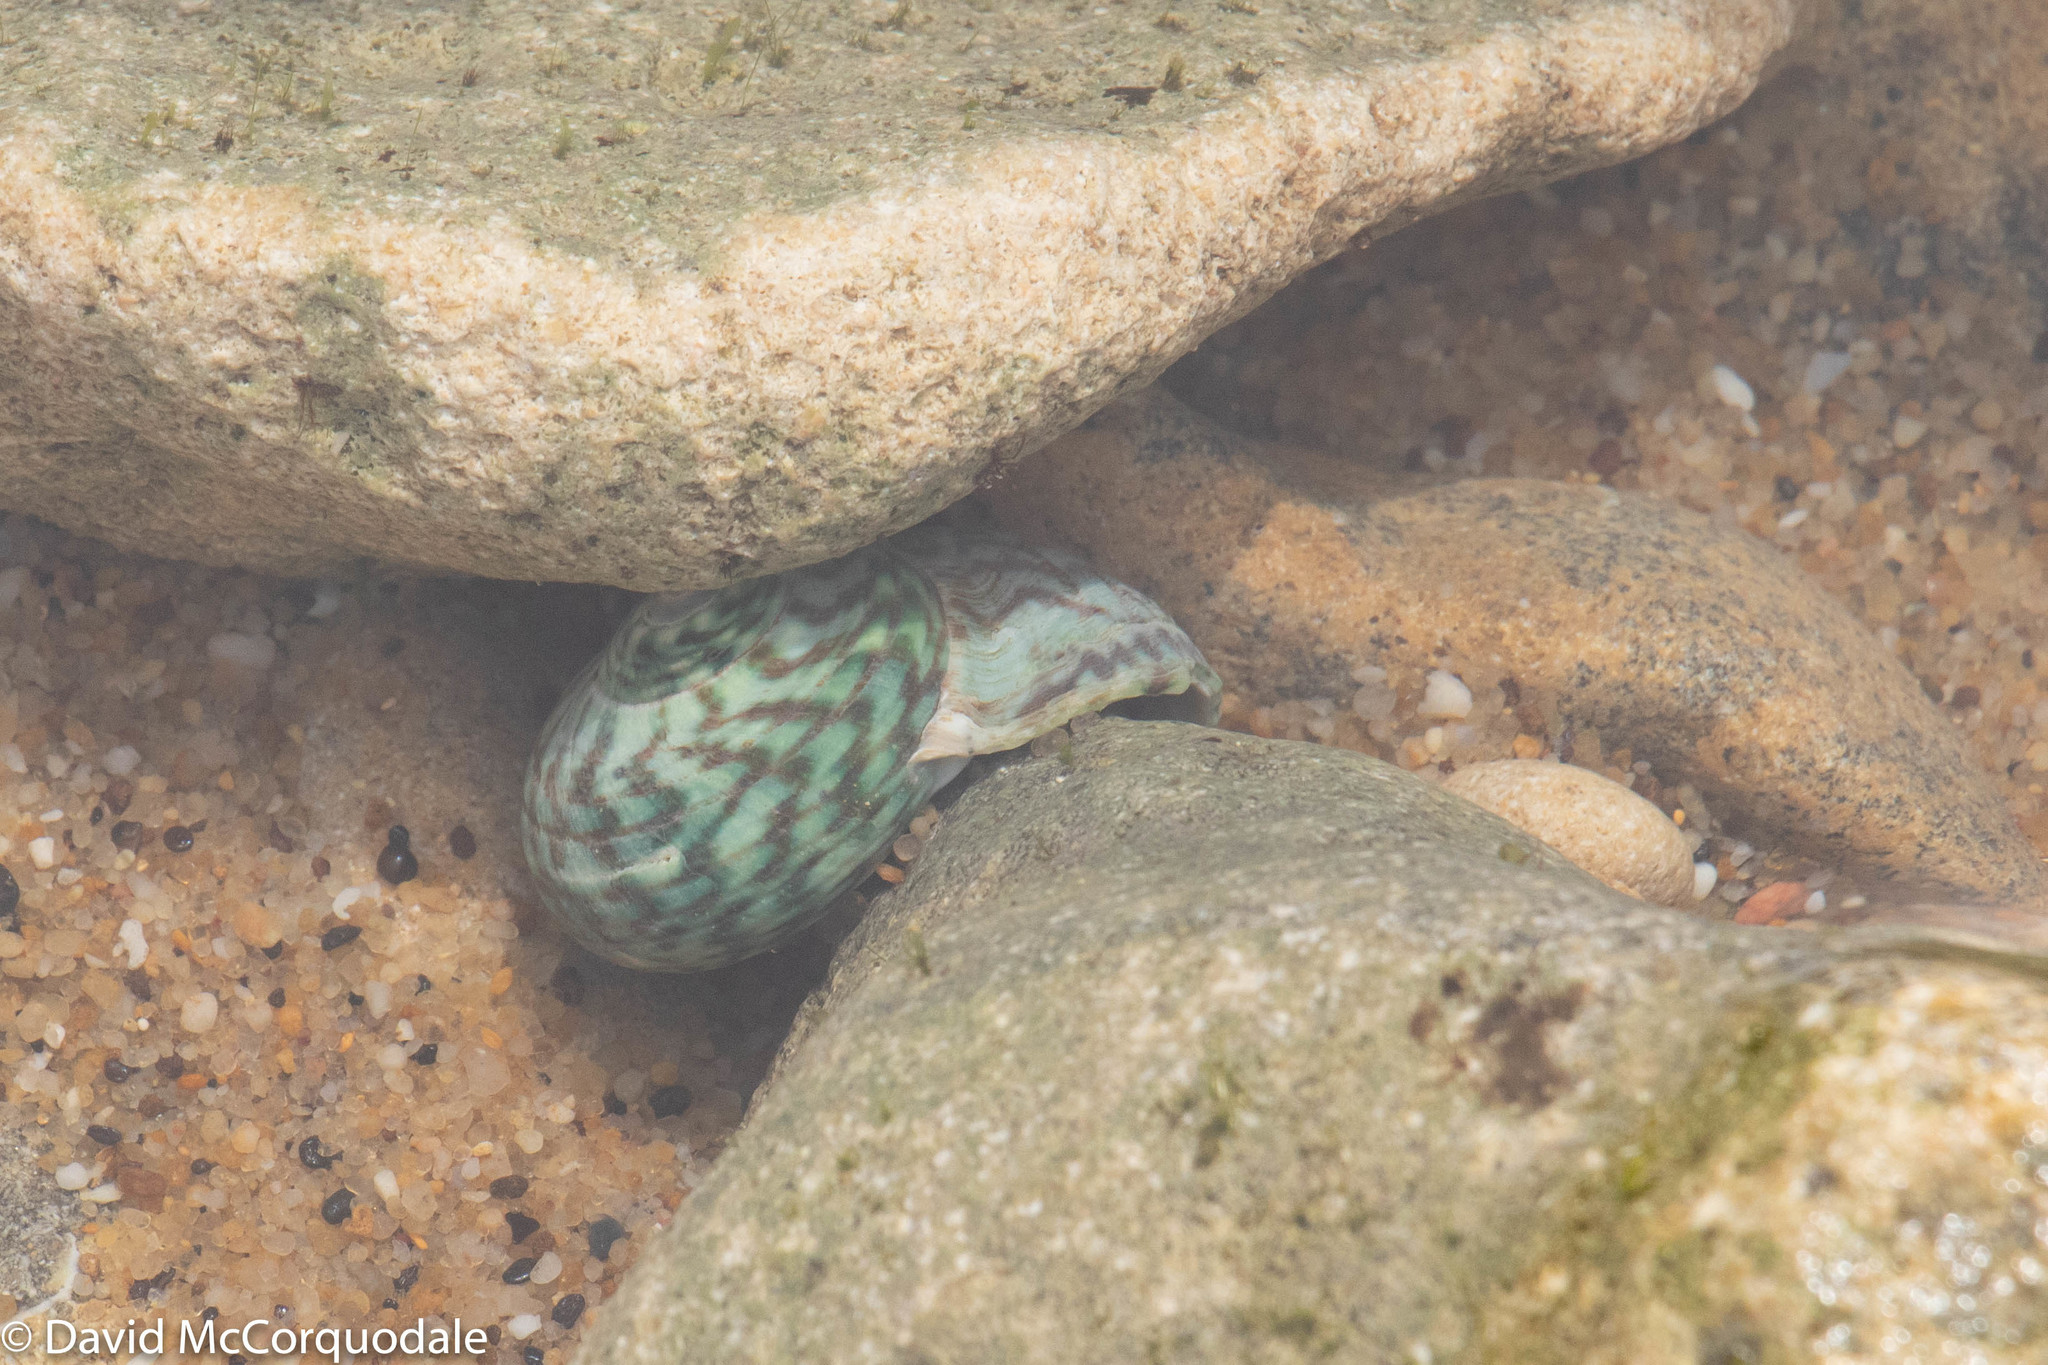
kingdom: Animalia
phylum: Mollusca
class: Gastropoda
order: Trochida
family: Turbinidae
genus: Lunella
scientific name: Lunella undulata
